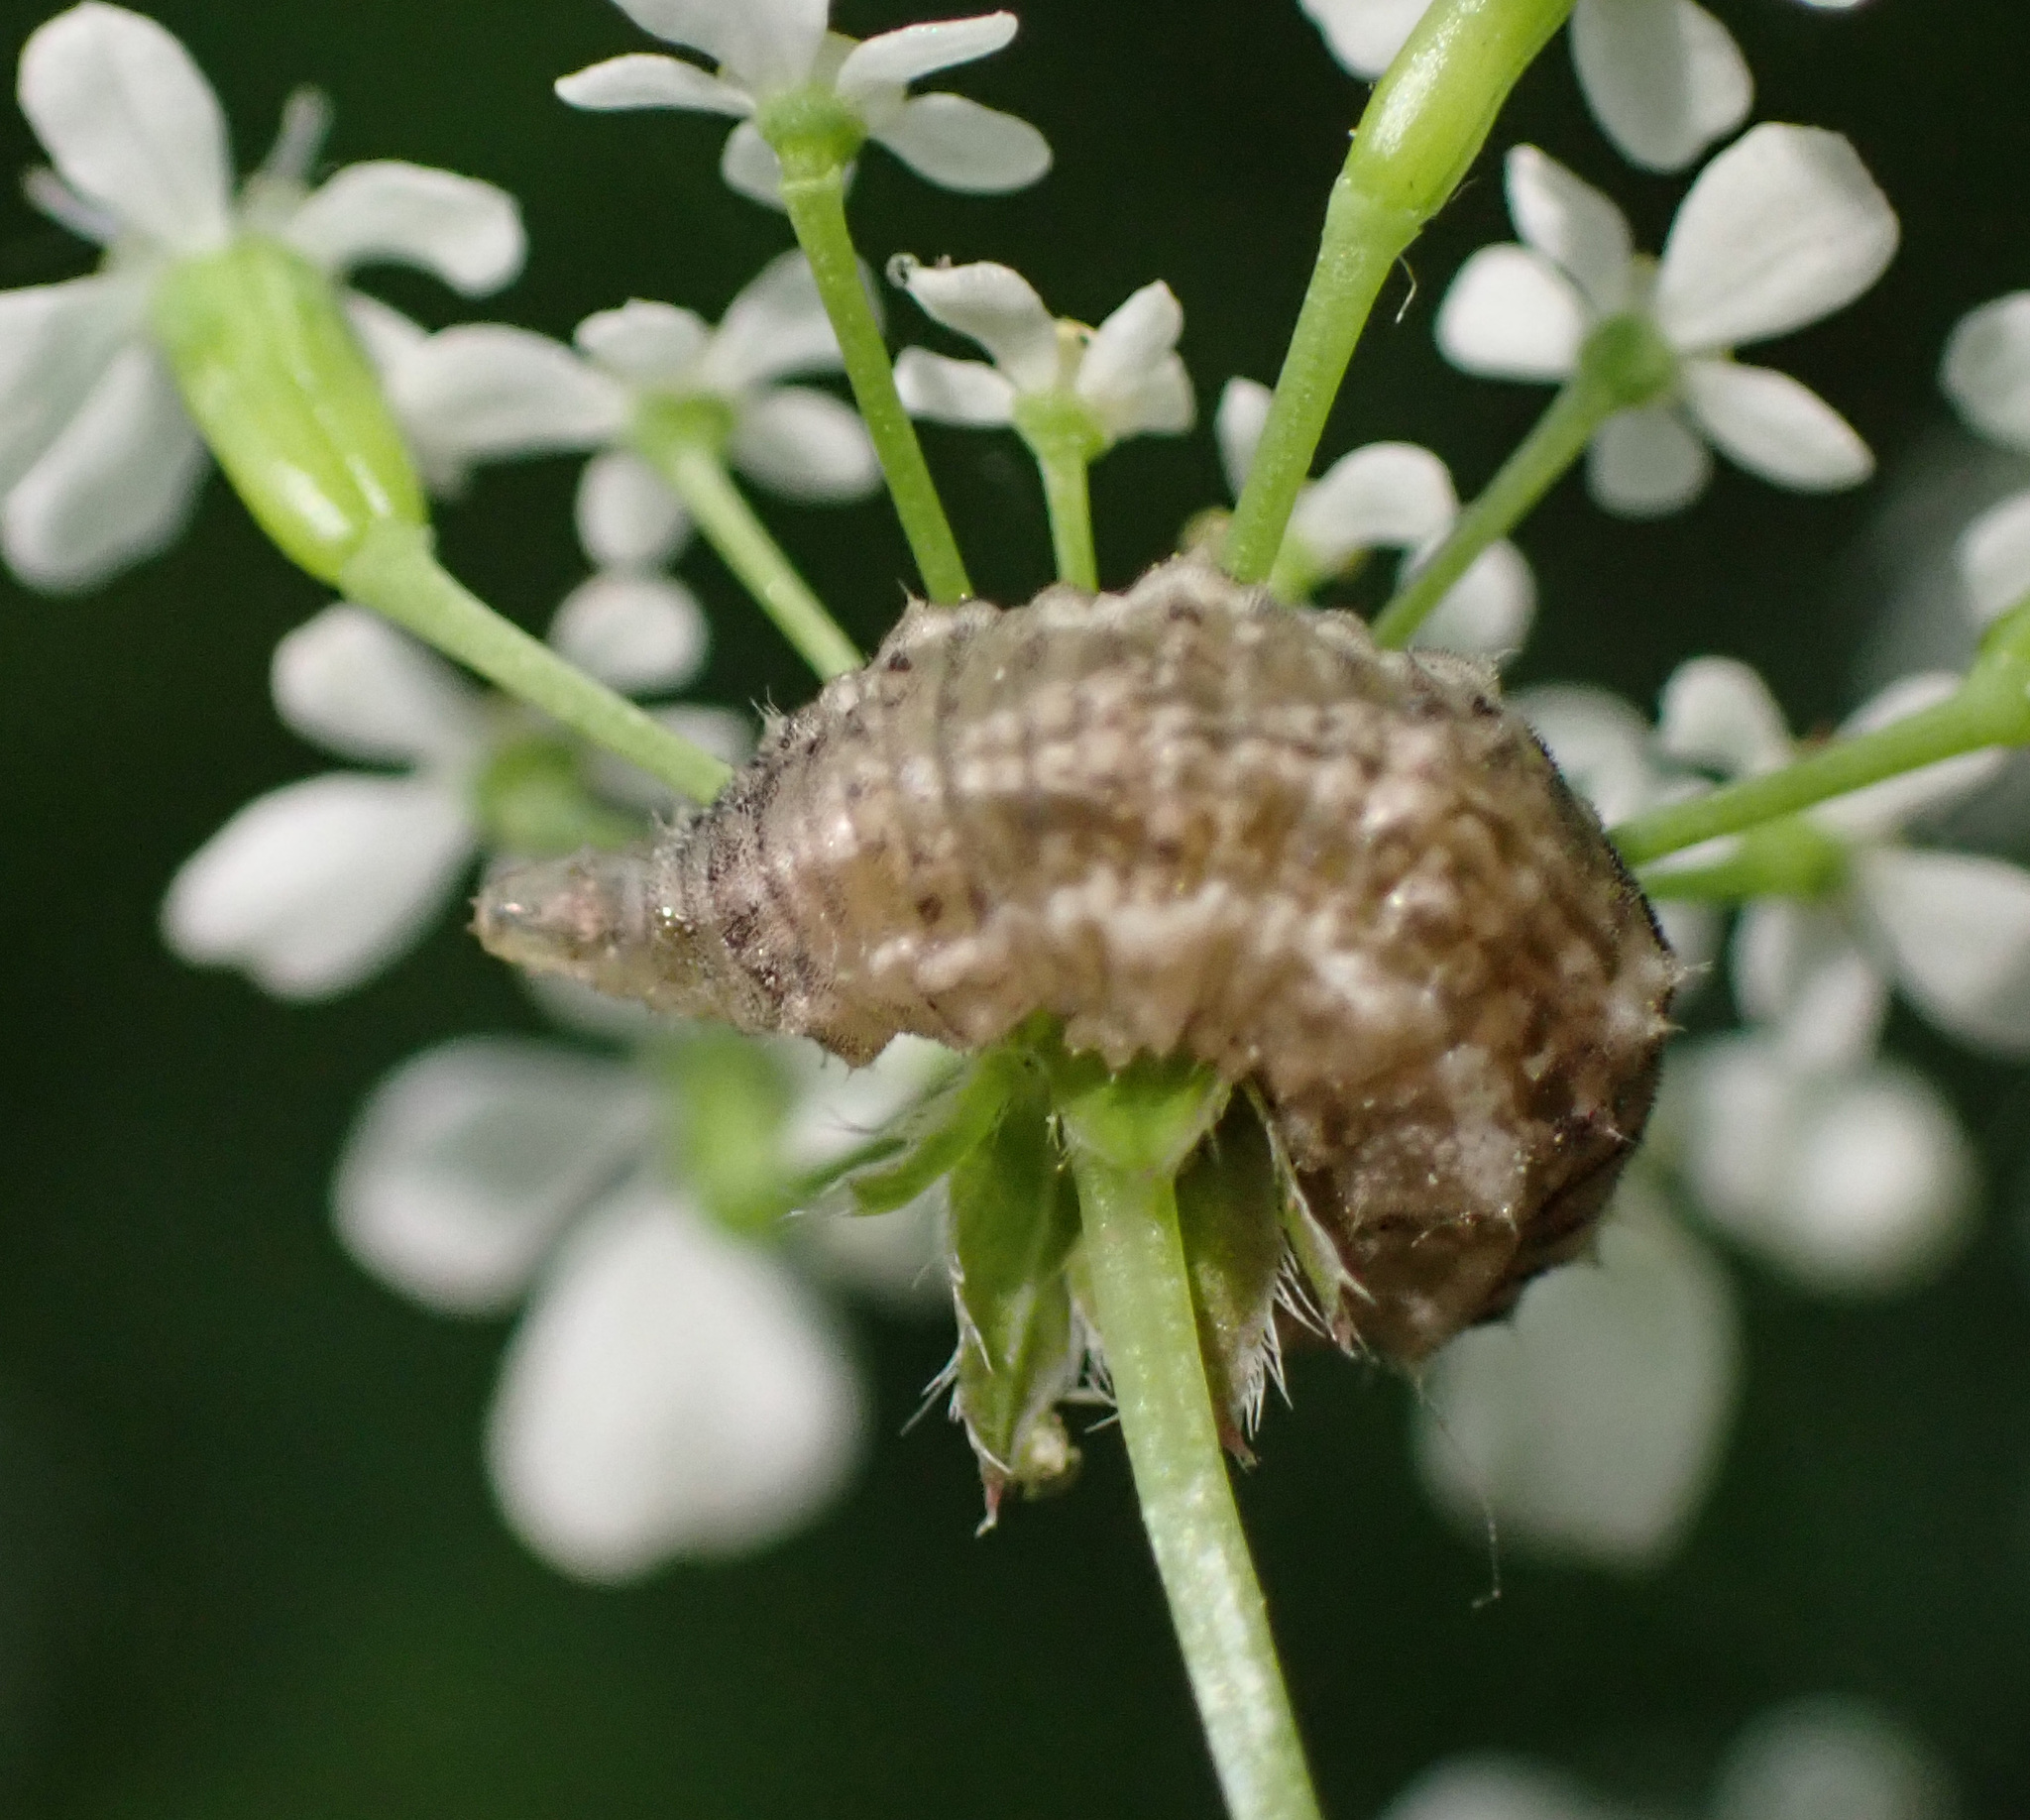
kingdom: Animalia
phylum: Arthropoda
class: Insecta
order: Diptera
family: Syrphidae
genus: Eupeodes
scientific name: Eupeodes
